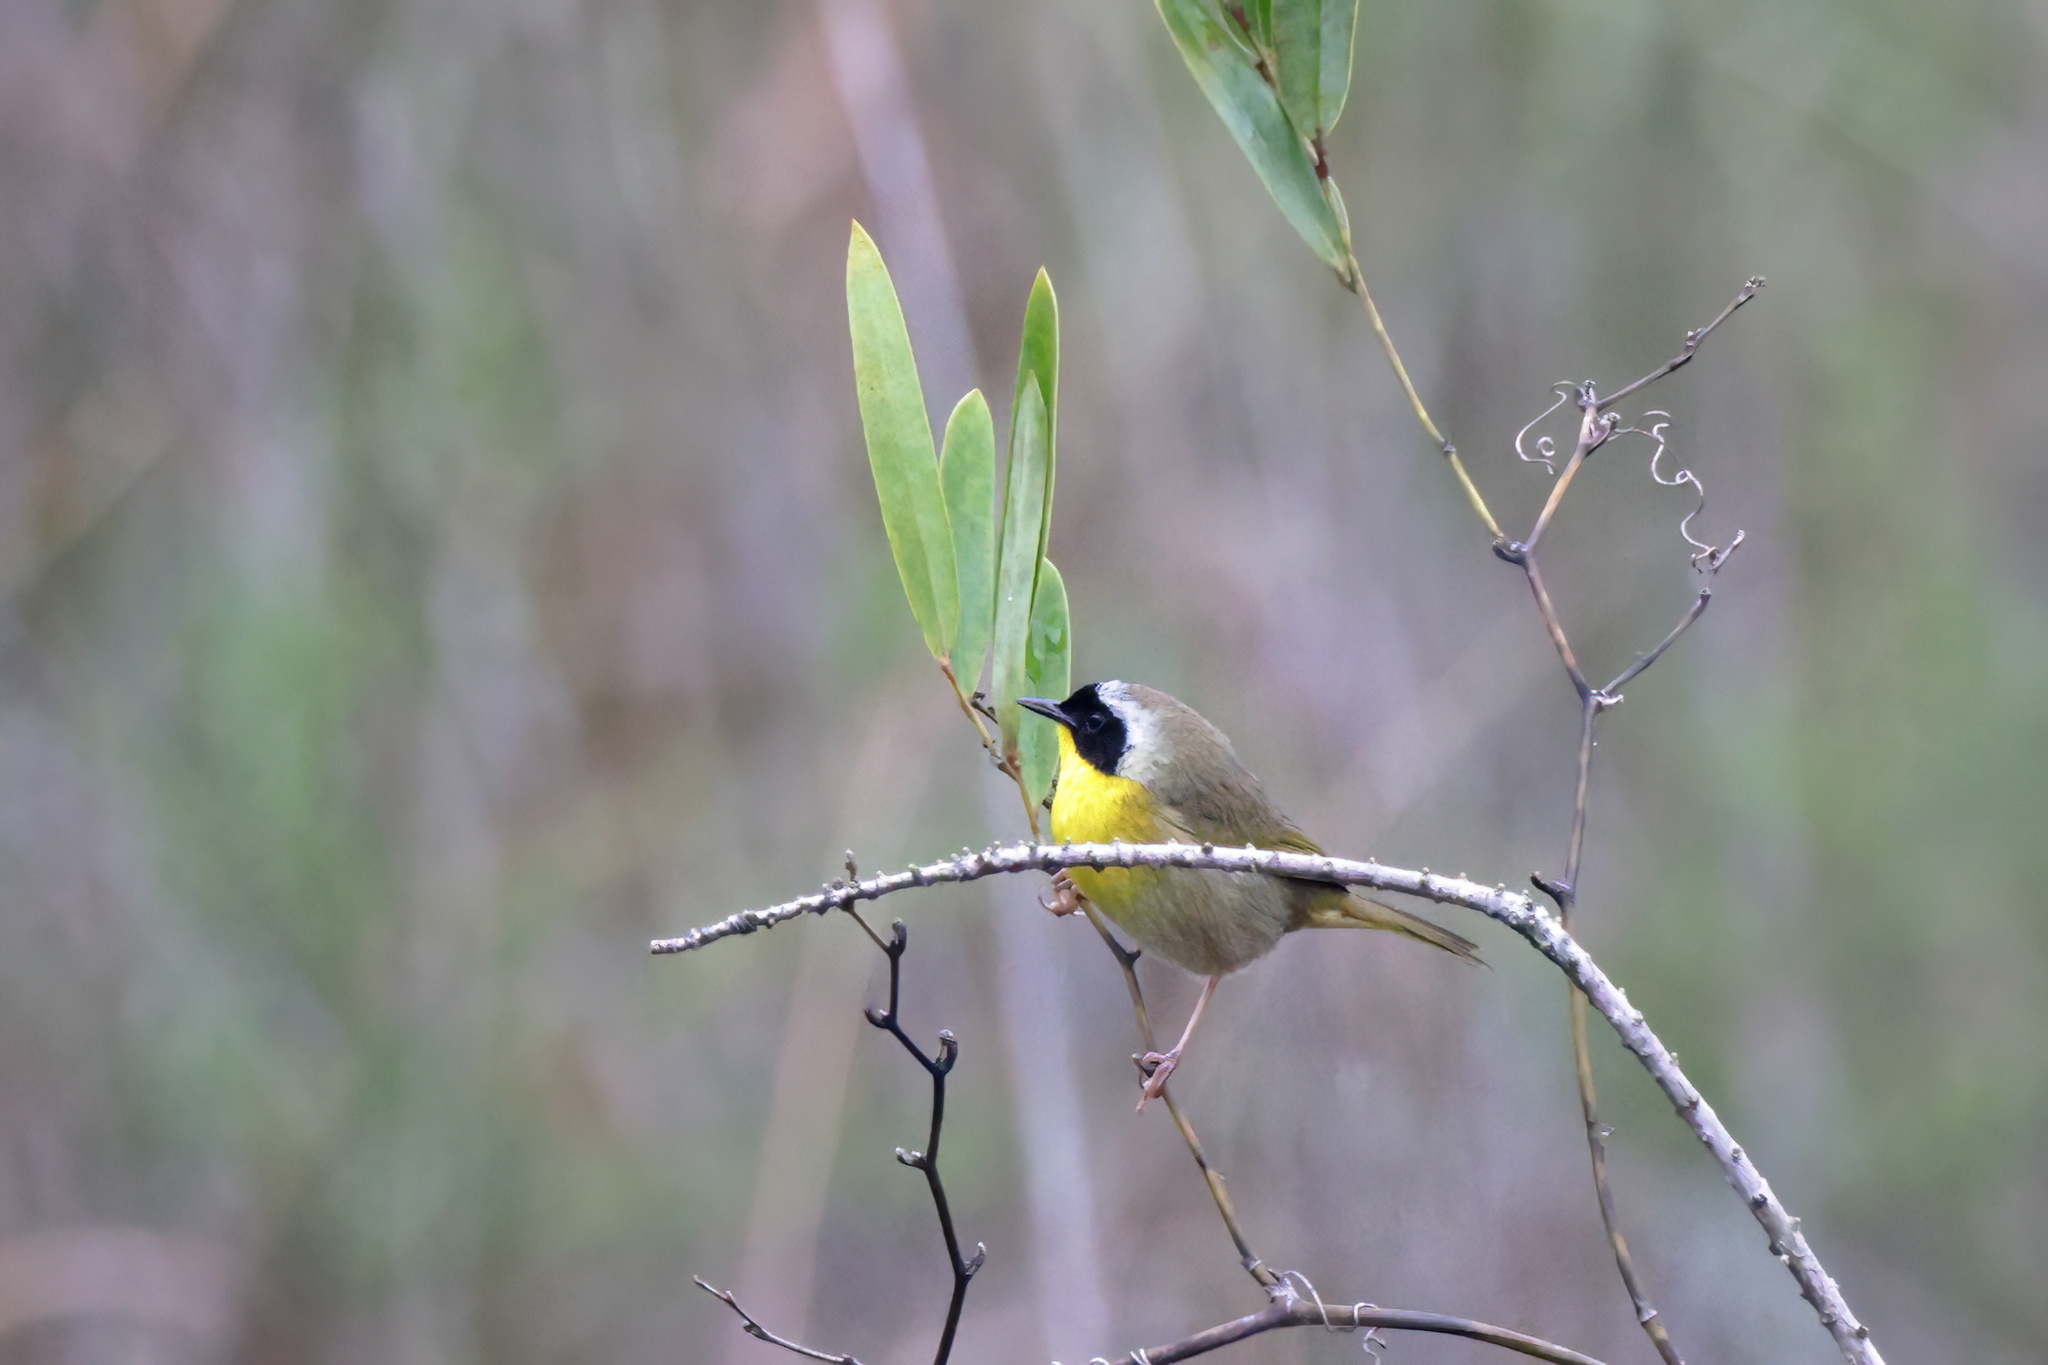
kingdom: Animalia
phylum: Chordata
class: Aves
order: Passeriformes
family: Parulidae
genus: Geothlypis
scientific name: Geothlypis trichas
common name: Common yellowthroat
